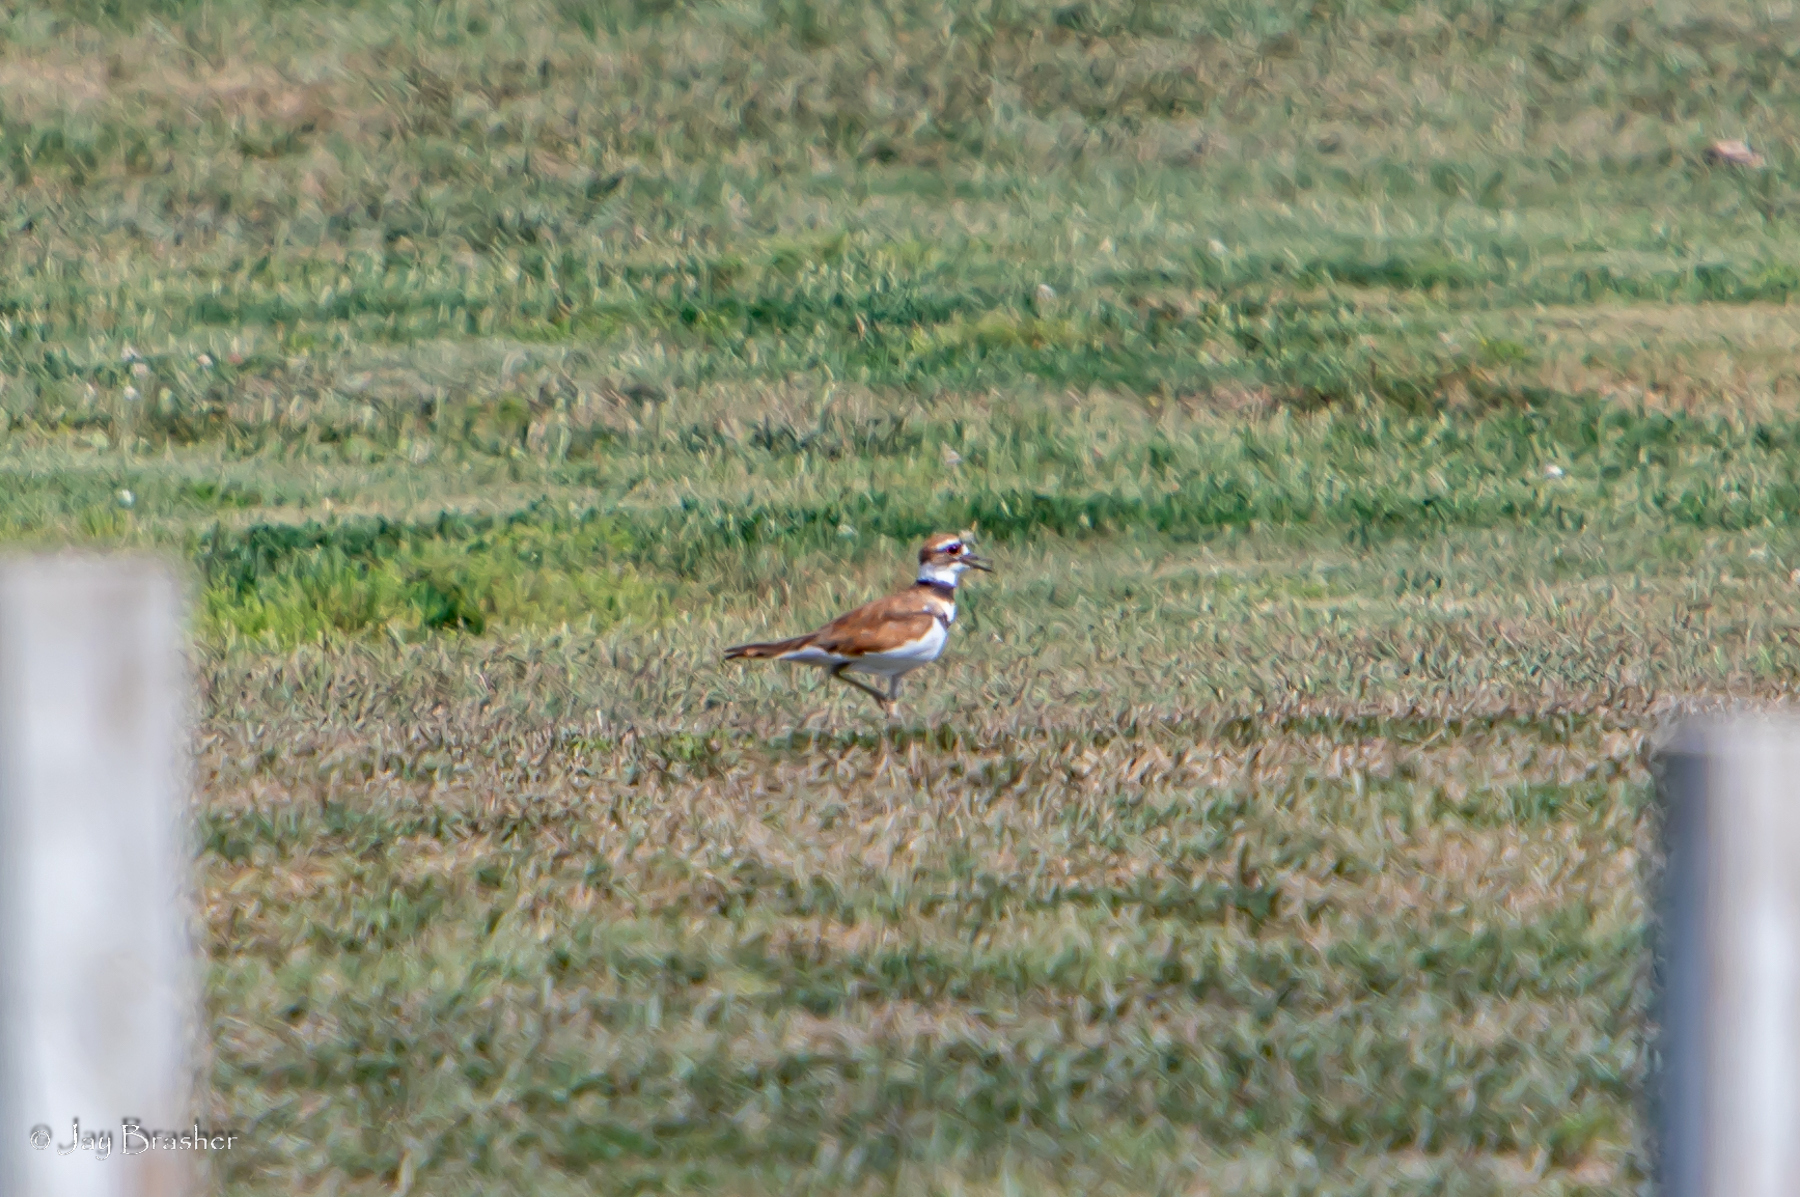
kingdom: Animalia
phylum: Chordata
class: Aves
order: Charadriiformes
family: Charadriidae
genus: Charadrius
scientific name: Charadrius vociferus
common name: Killdeer
